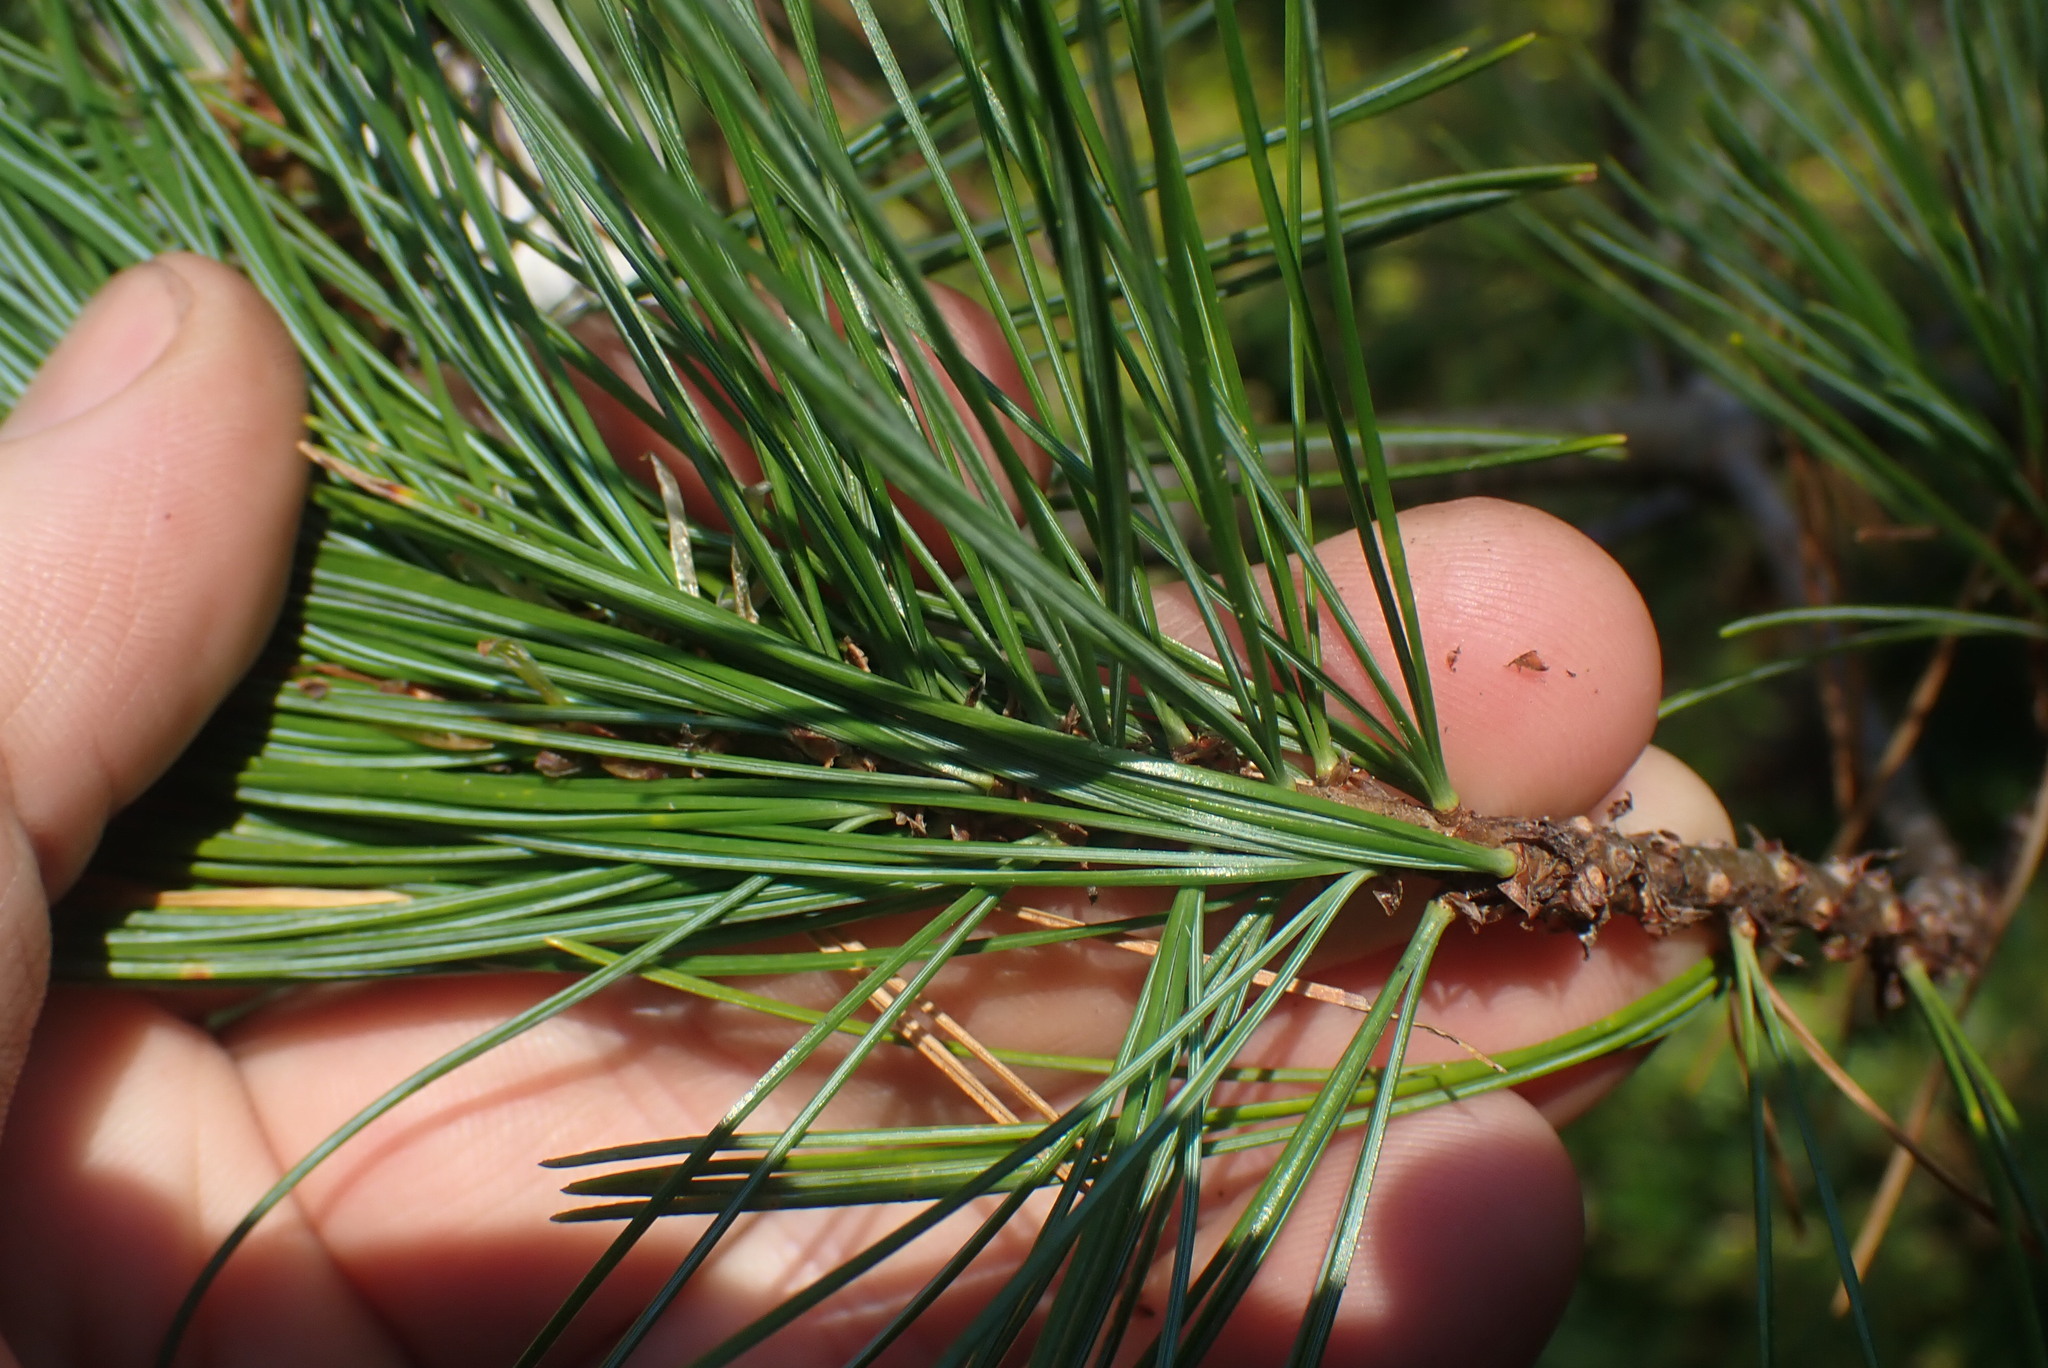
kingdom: Plantae
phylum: Tracheophyta
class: Pinopsida
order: Pinales
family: Pinaceae
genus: Pinus
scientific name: Pinus monticola
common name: Western white pine
